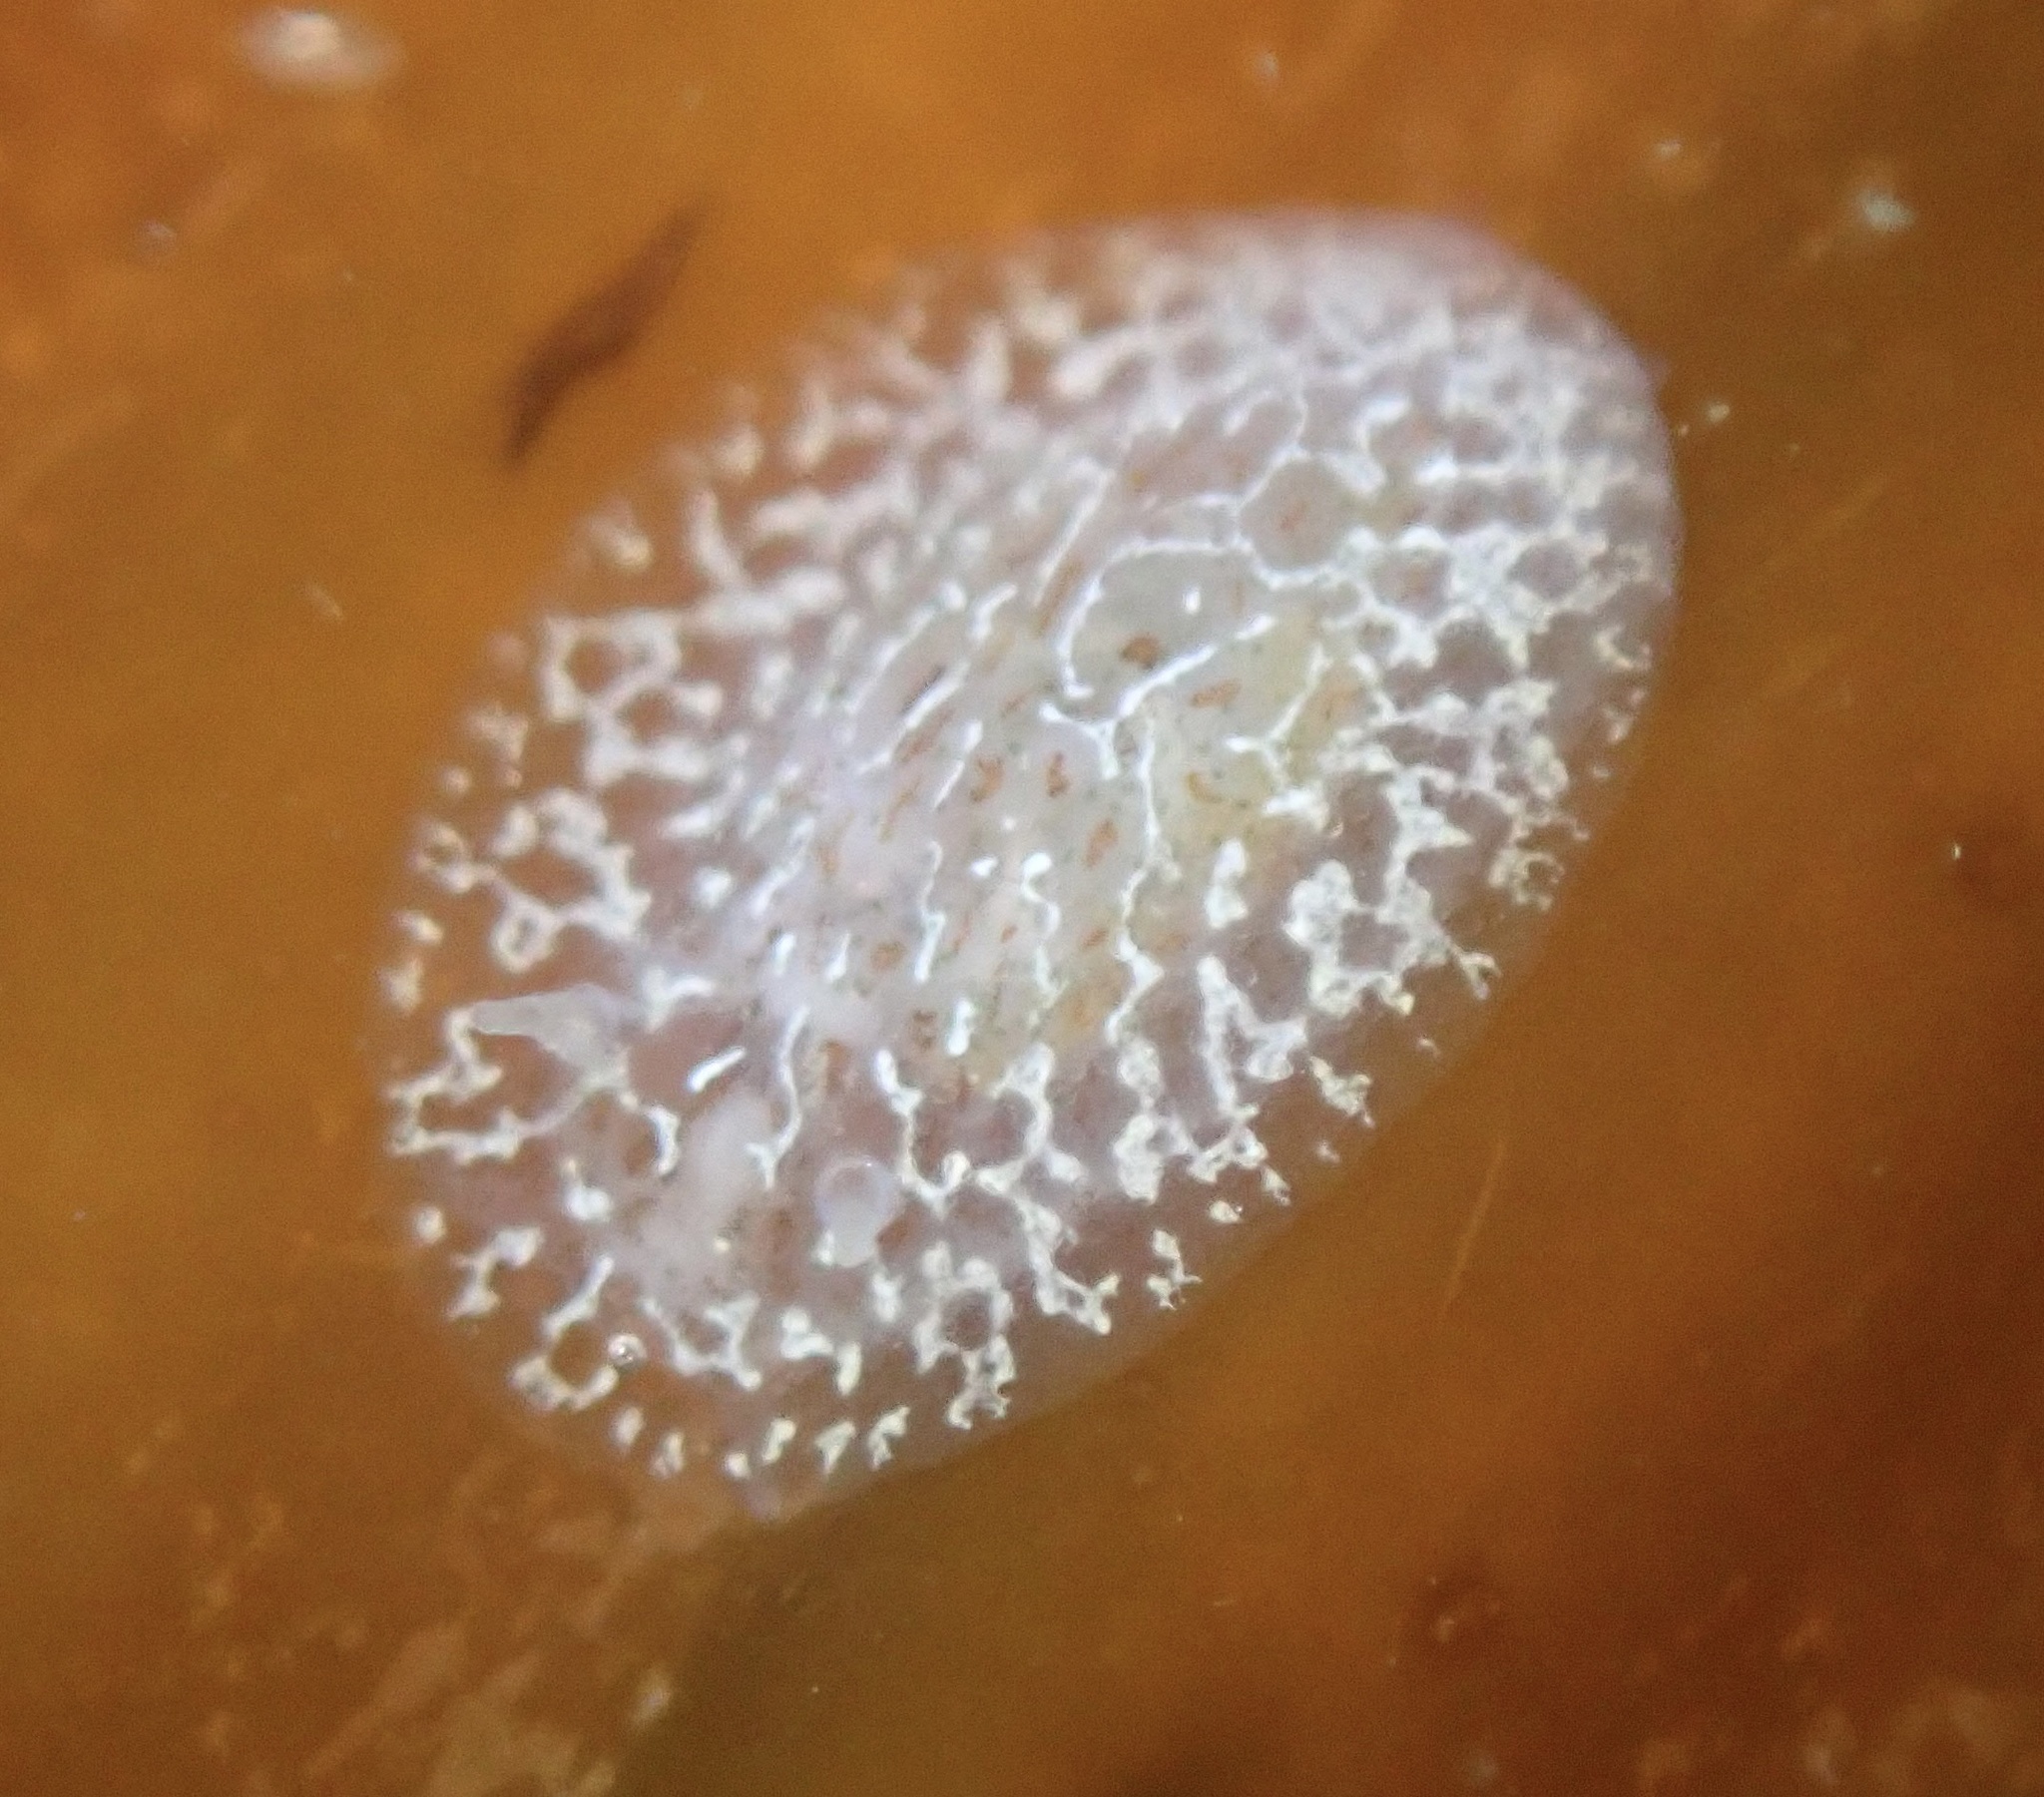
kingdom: Animalia
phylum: Mollusca
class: Gastropoda
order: Nudibranchia
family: Corambidae
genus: Corambe
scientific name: Corambe steinbergae
